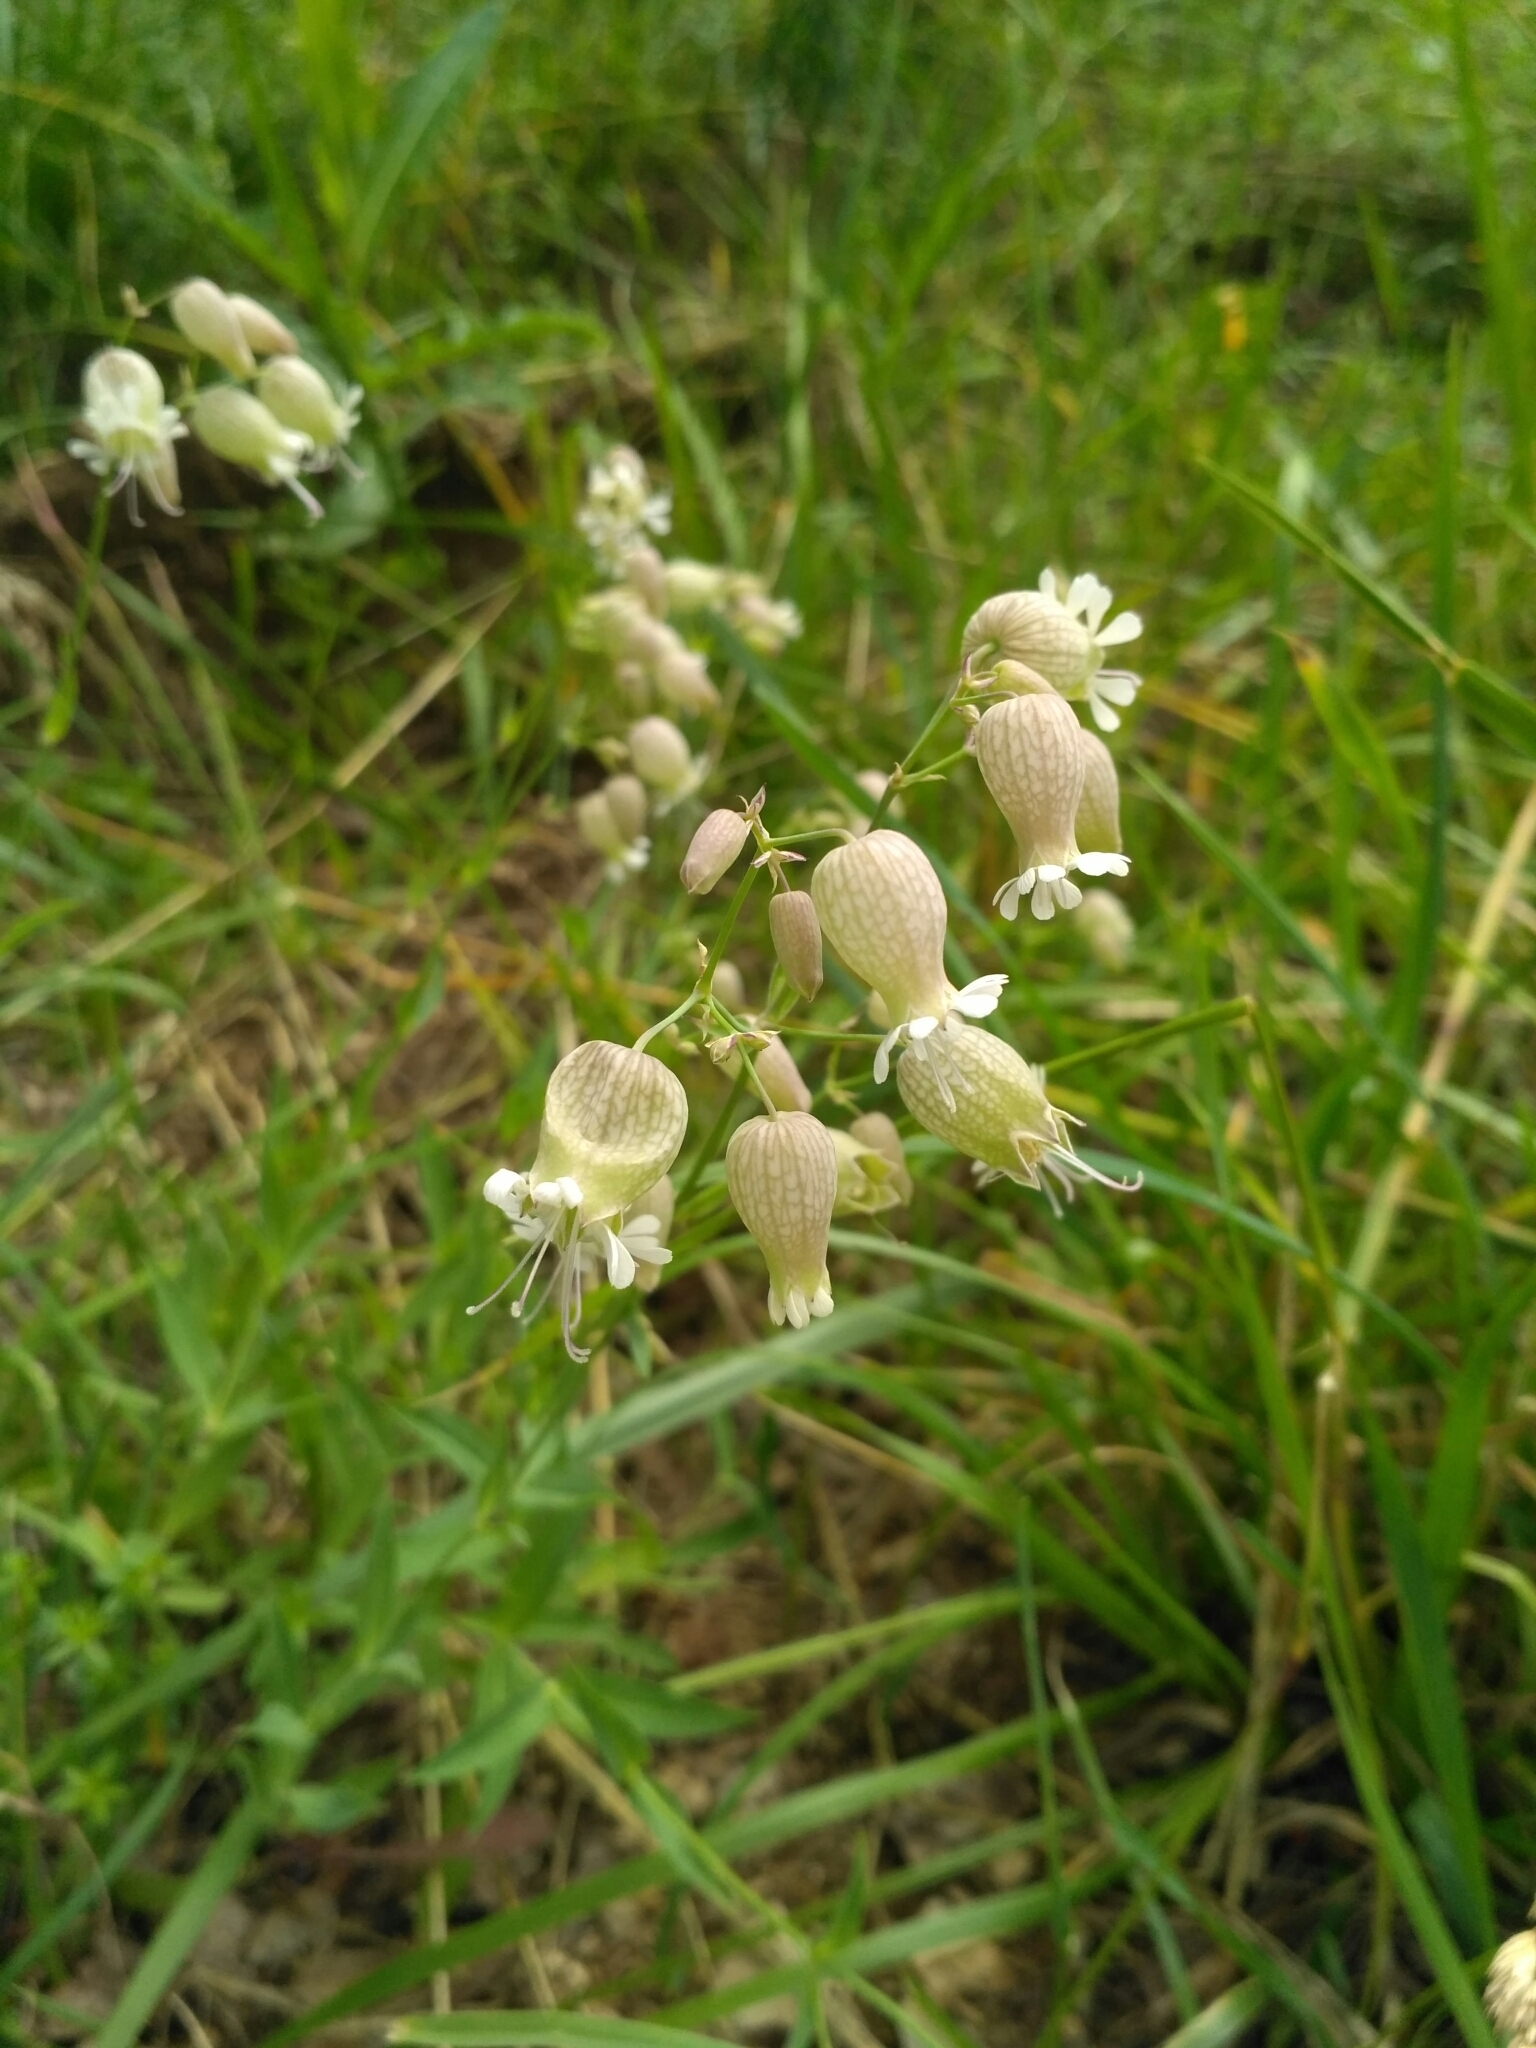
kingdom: Plantae
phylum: Tracheophyta
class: Magnoliopsida
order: Caryophyllales
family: Caryophyllaceae
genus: Silene
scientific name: Silene vulgaris
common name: Bladder campion
